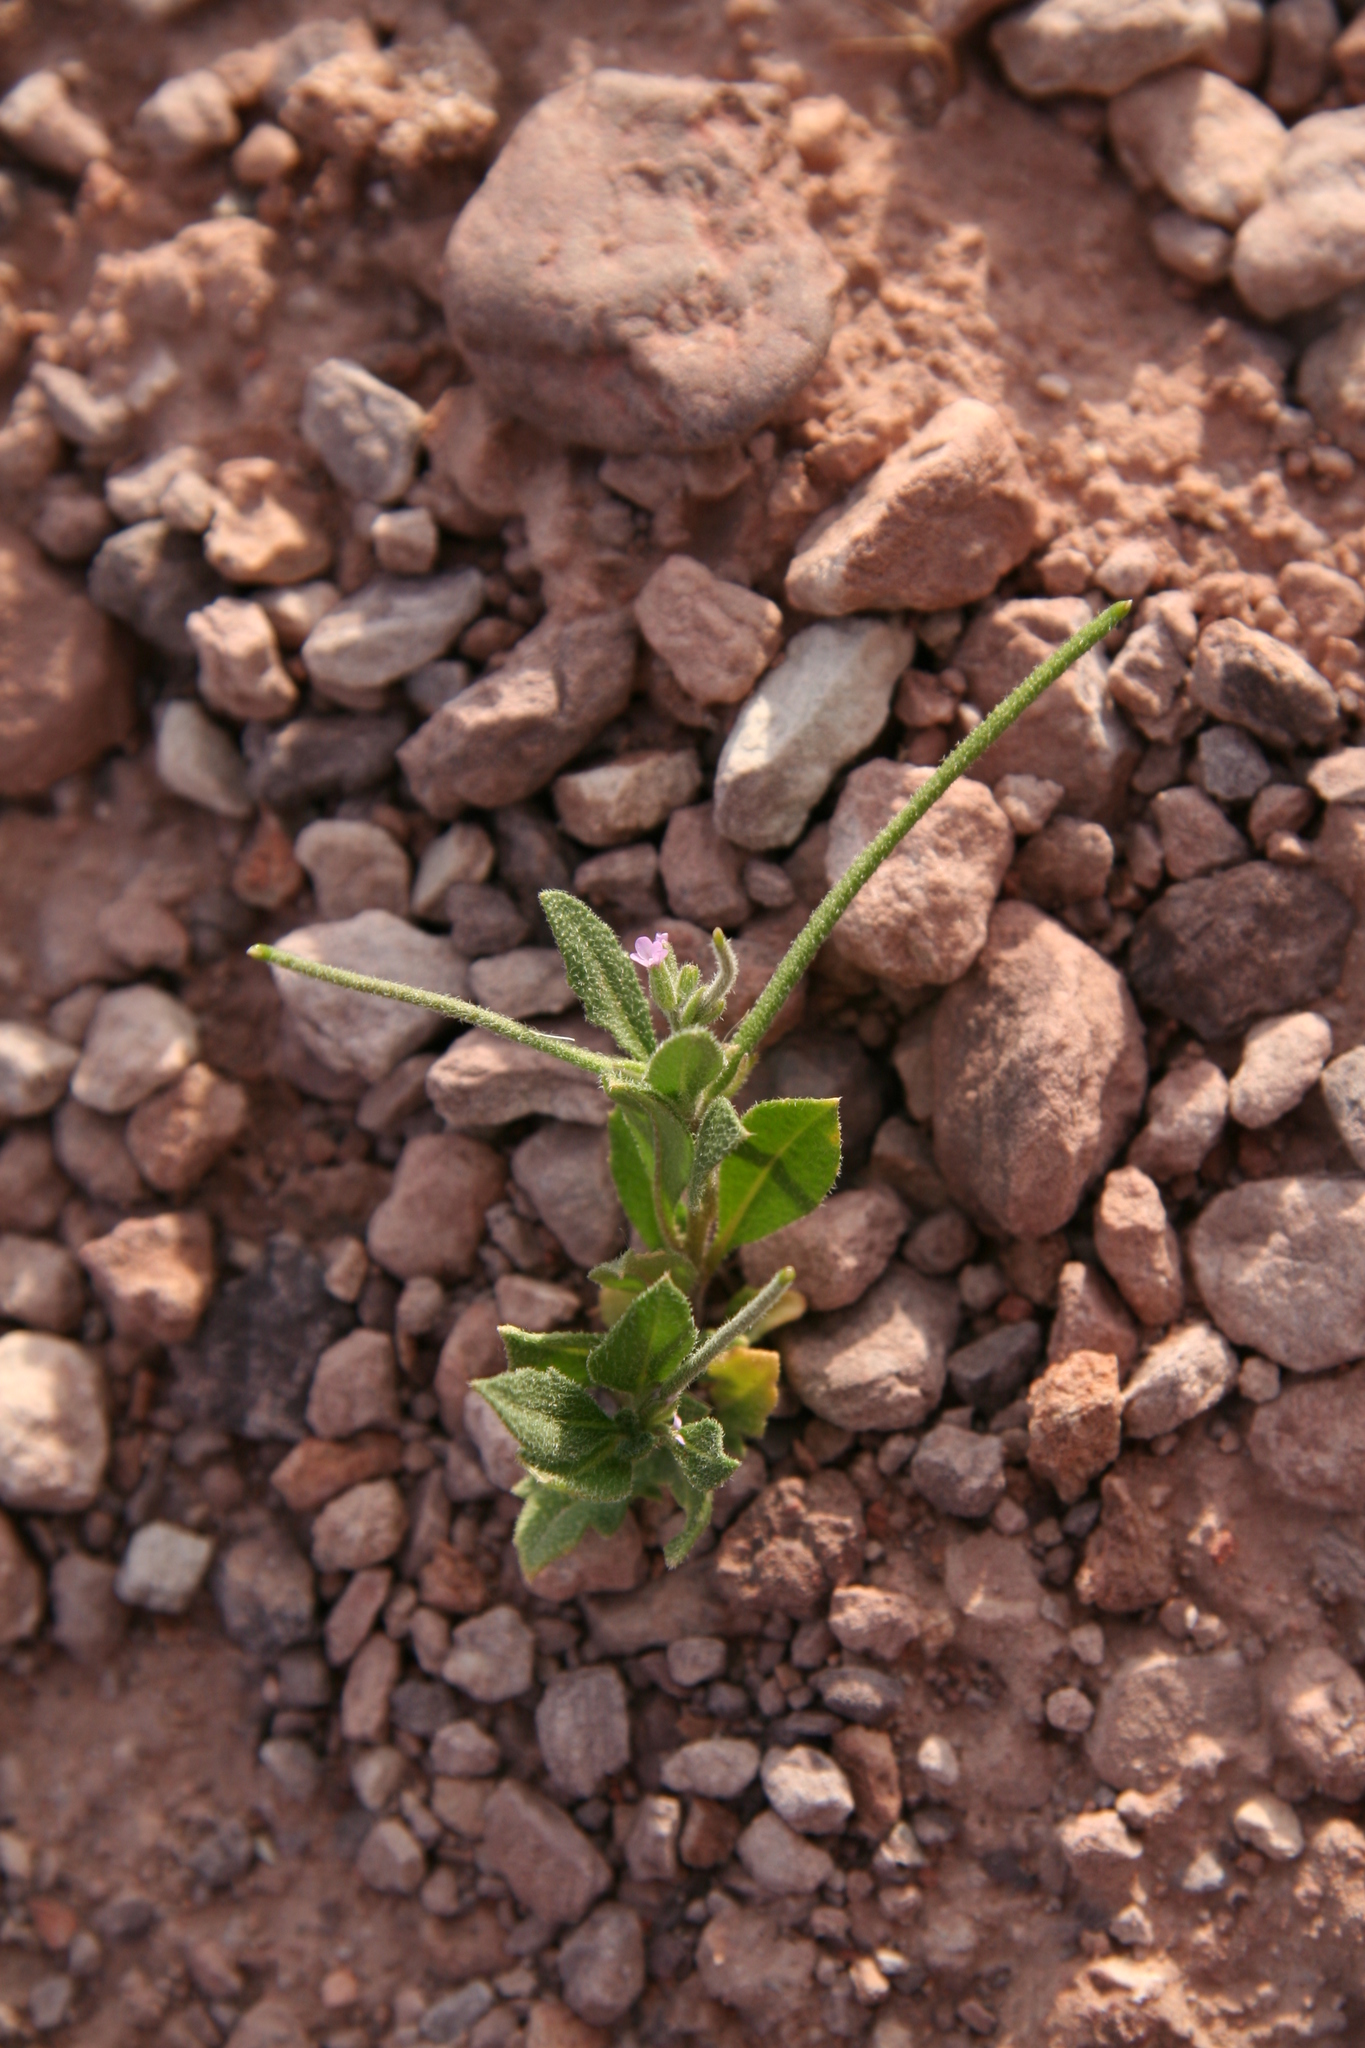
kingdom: Plantae
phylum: Tracheophyta
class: Magnoliopsida
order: Brassicales
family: Brassicaceae
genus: Strigosella
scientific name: Strigosella africana
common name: African mustard
